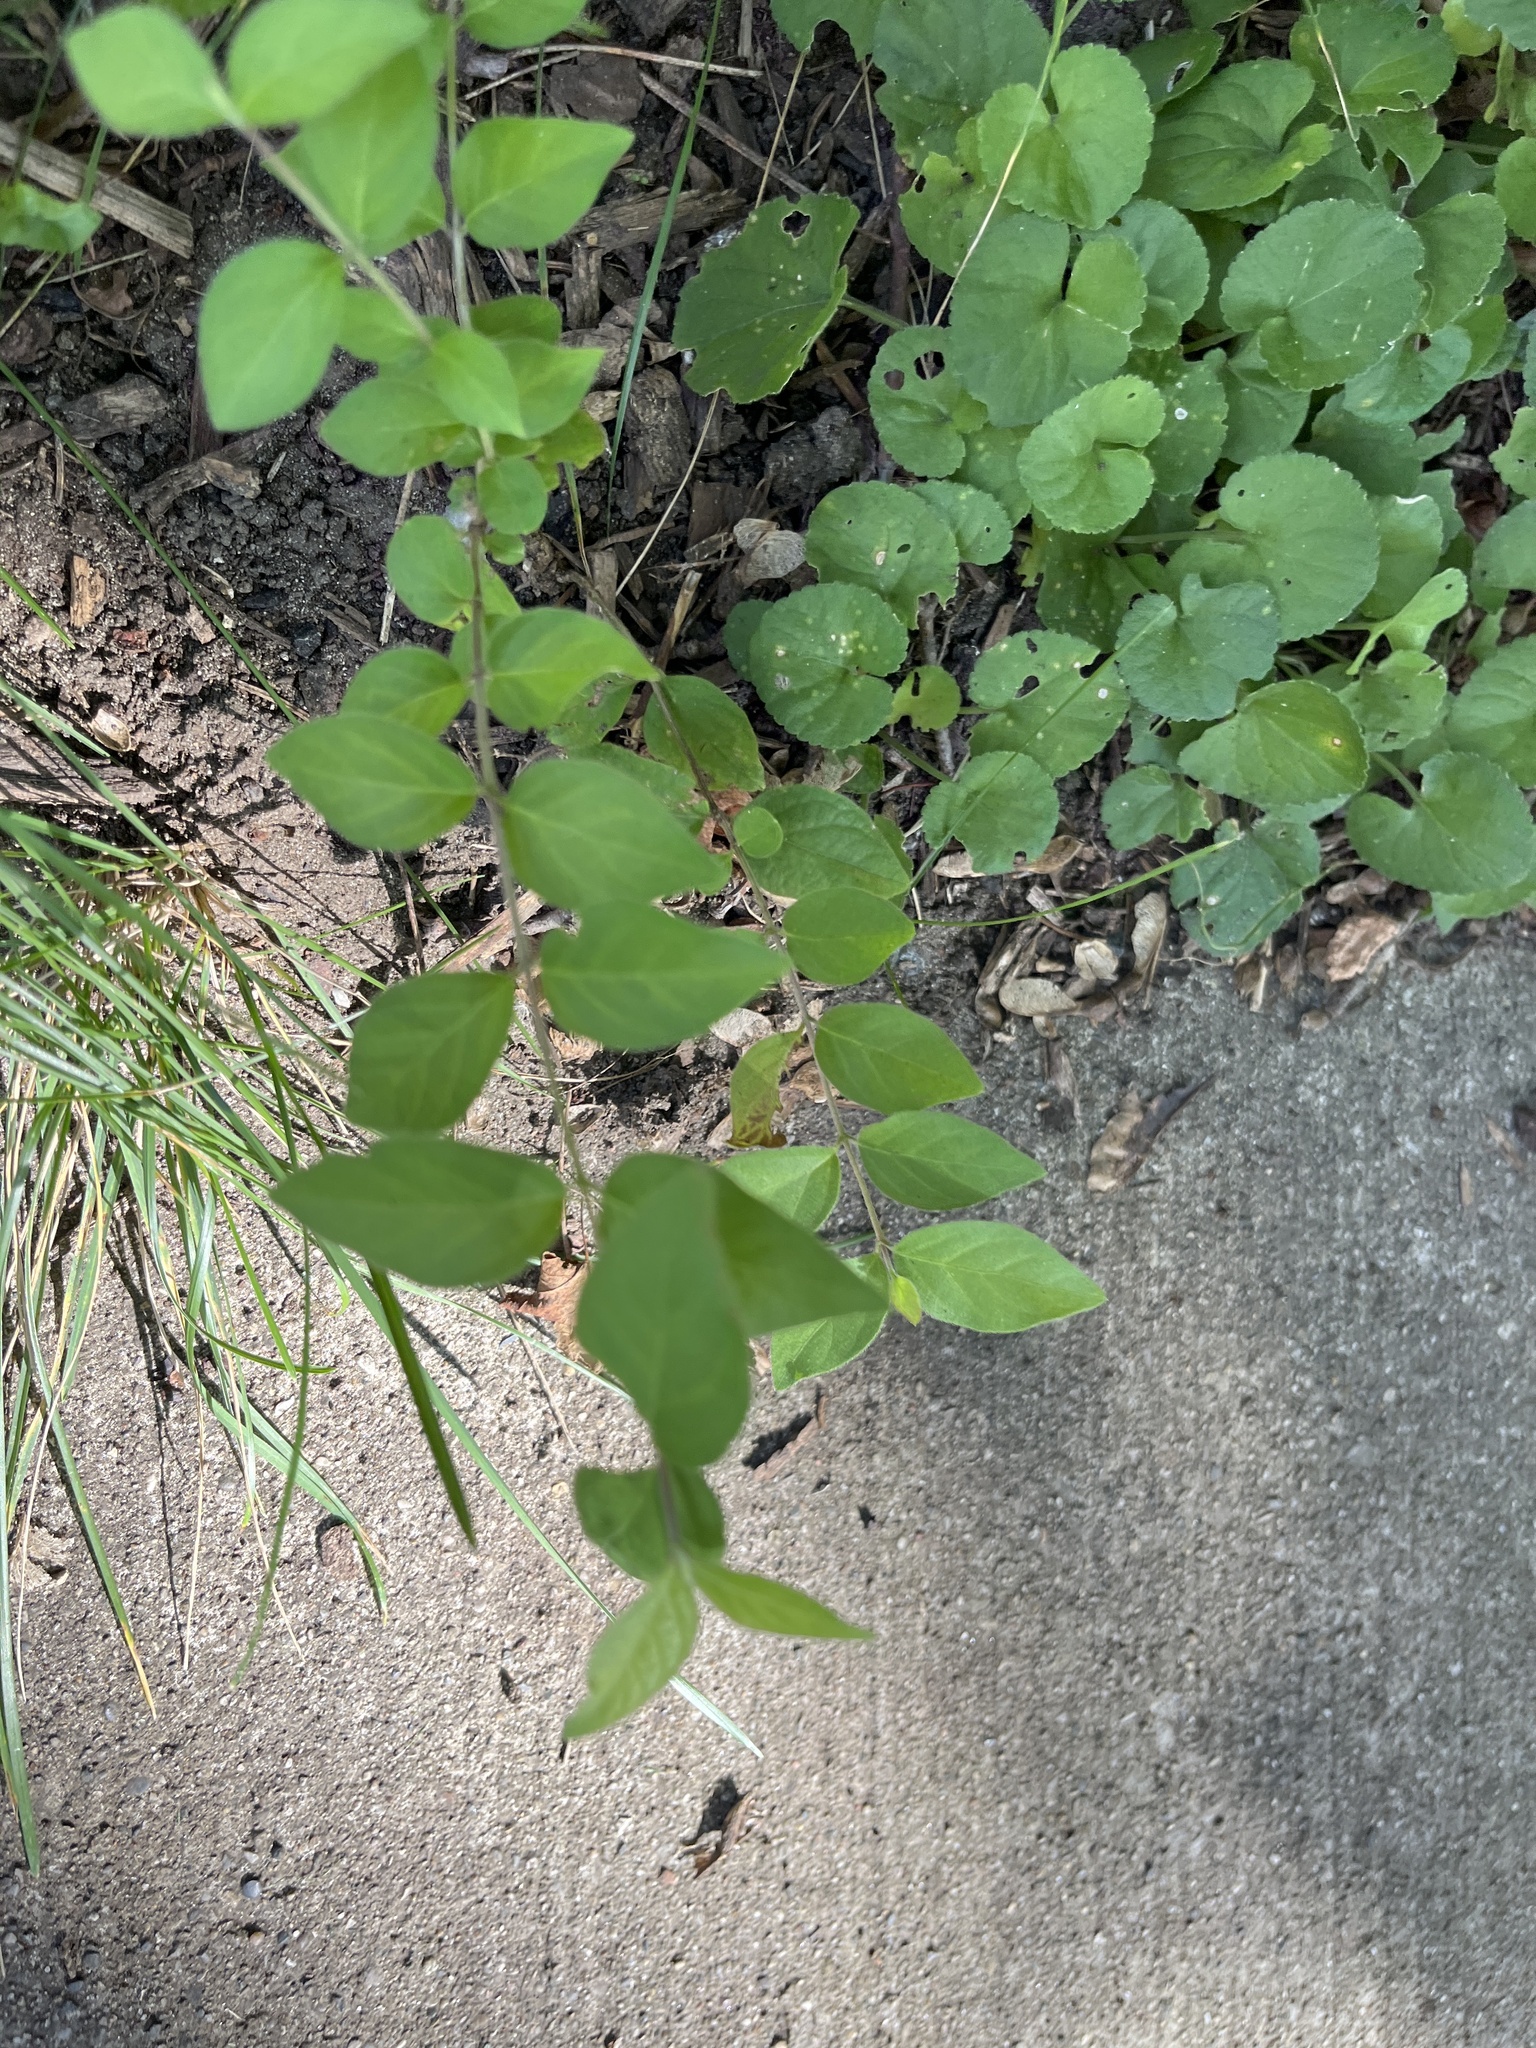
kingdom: Plantae
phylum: Tracheophyta
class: Magnoliopsida
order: Dipsacales
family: Caprifoliaceae
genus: Lonicera
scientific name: Lonicera maackii
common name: Amur honeysuckle
